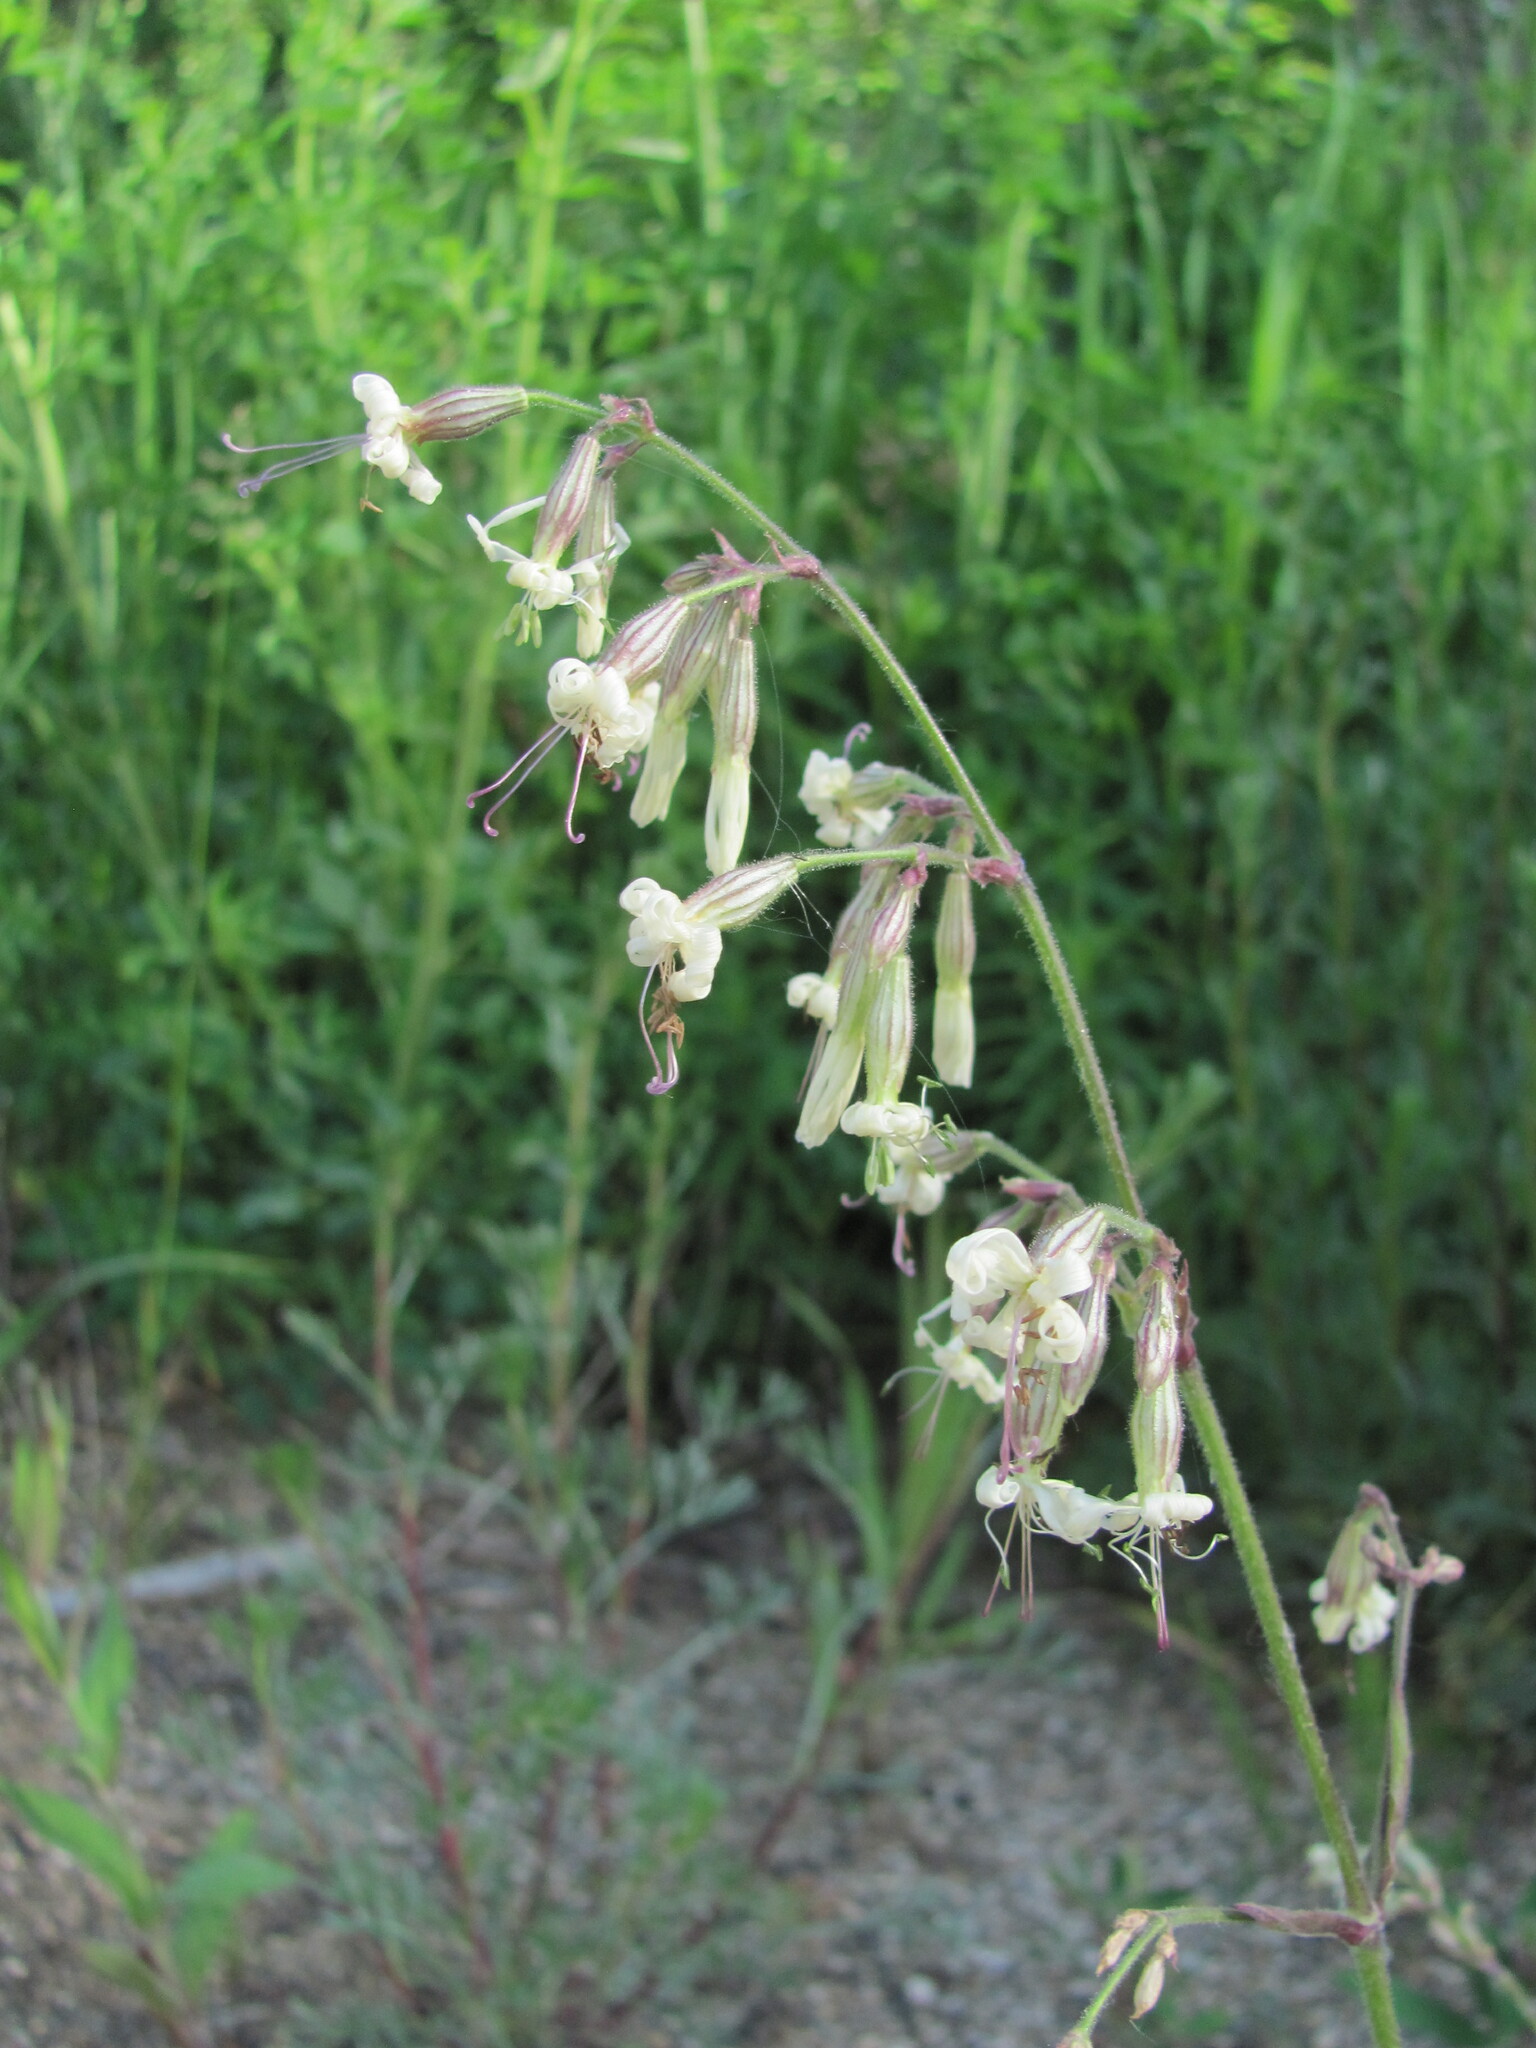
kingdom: Plantae
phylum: Tracheophyta
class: Magnoliopsida
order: Caryophyllales
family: Caryophyllaceae
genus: Silene
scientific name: Silene nutans
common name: Nottingham catchfly
